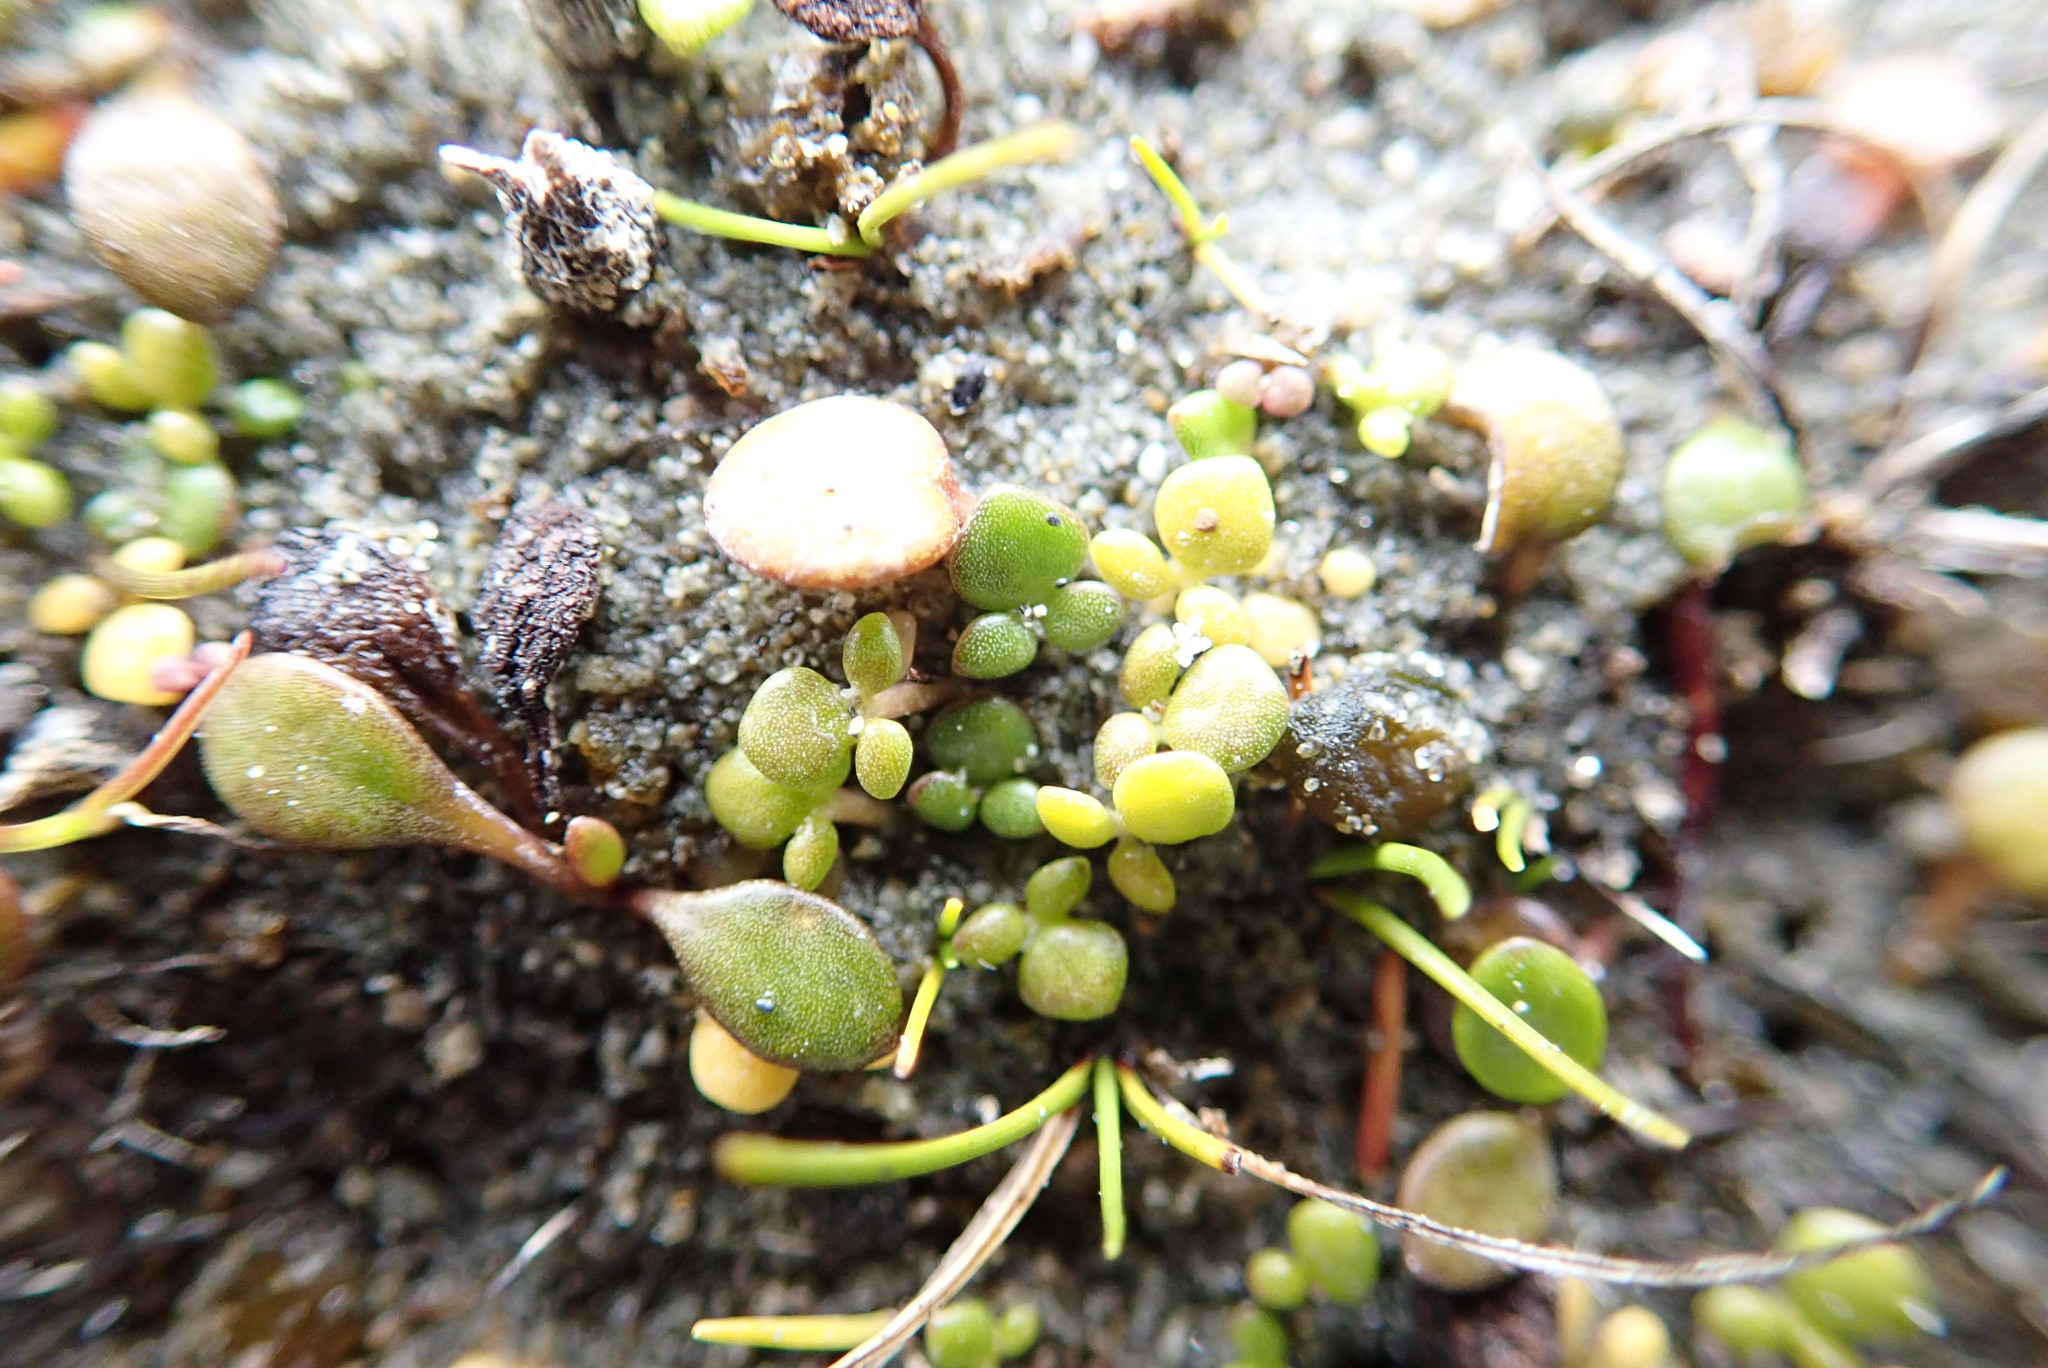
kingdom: Plantae
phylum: Tracheophyta
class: Magnoliopsida
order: Ranunculales
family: Ranunculaceae
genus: Ranunculus
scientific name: Ranunculus acaulis
